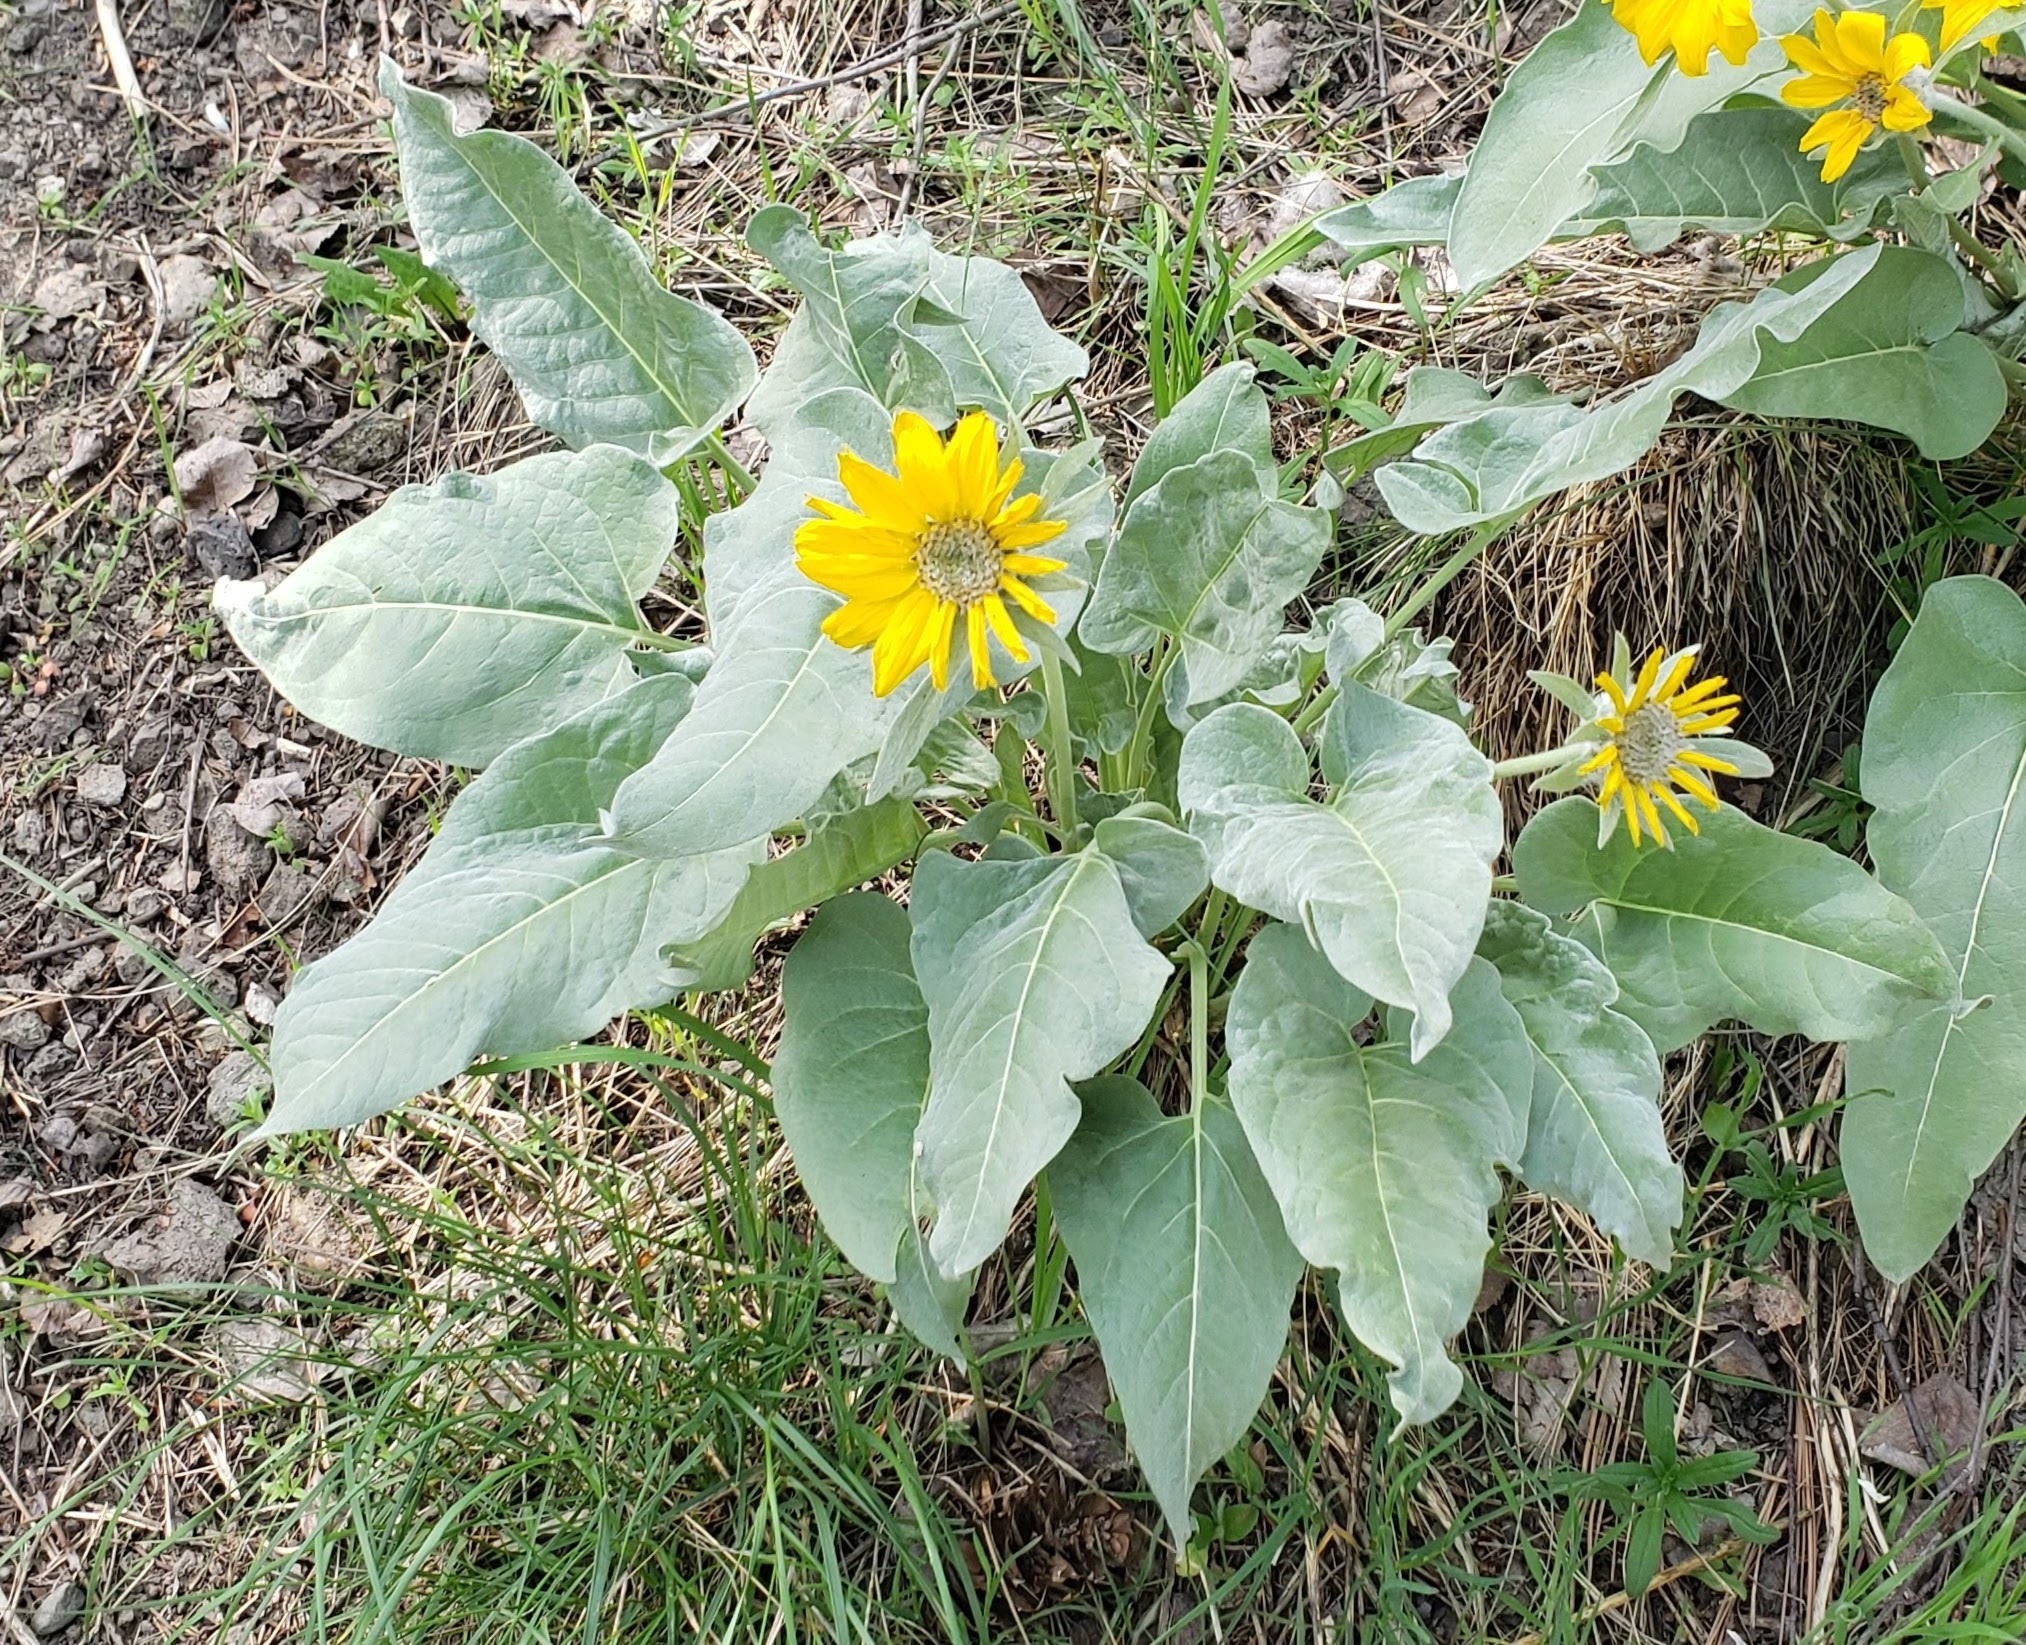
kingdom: Plantae
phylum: Tracheophyta
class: Magnoliopsida
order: Asterales
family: Asteraceae
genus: Wyethia
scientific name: Wyethia sagittata
